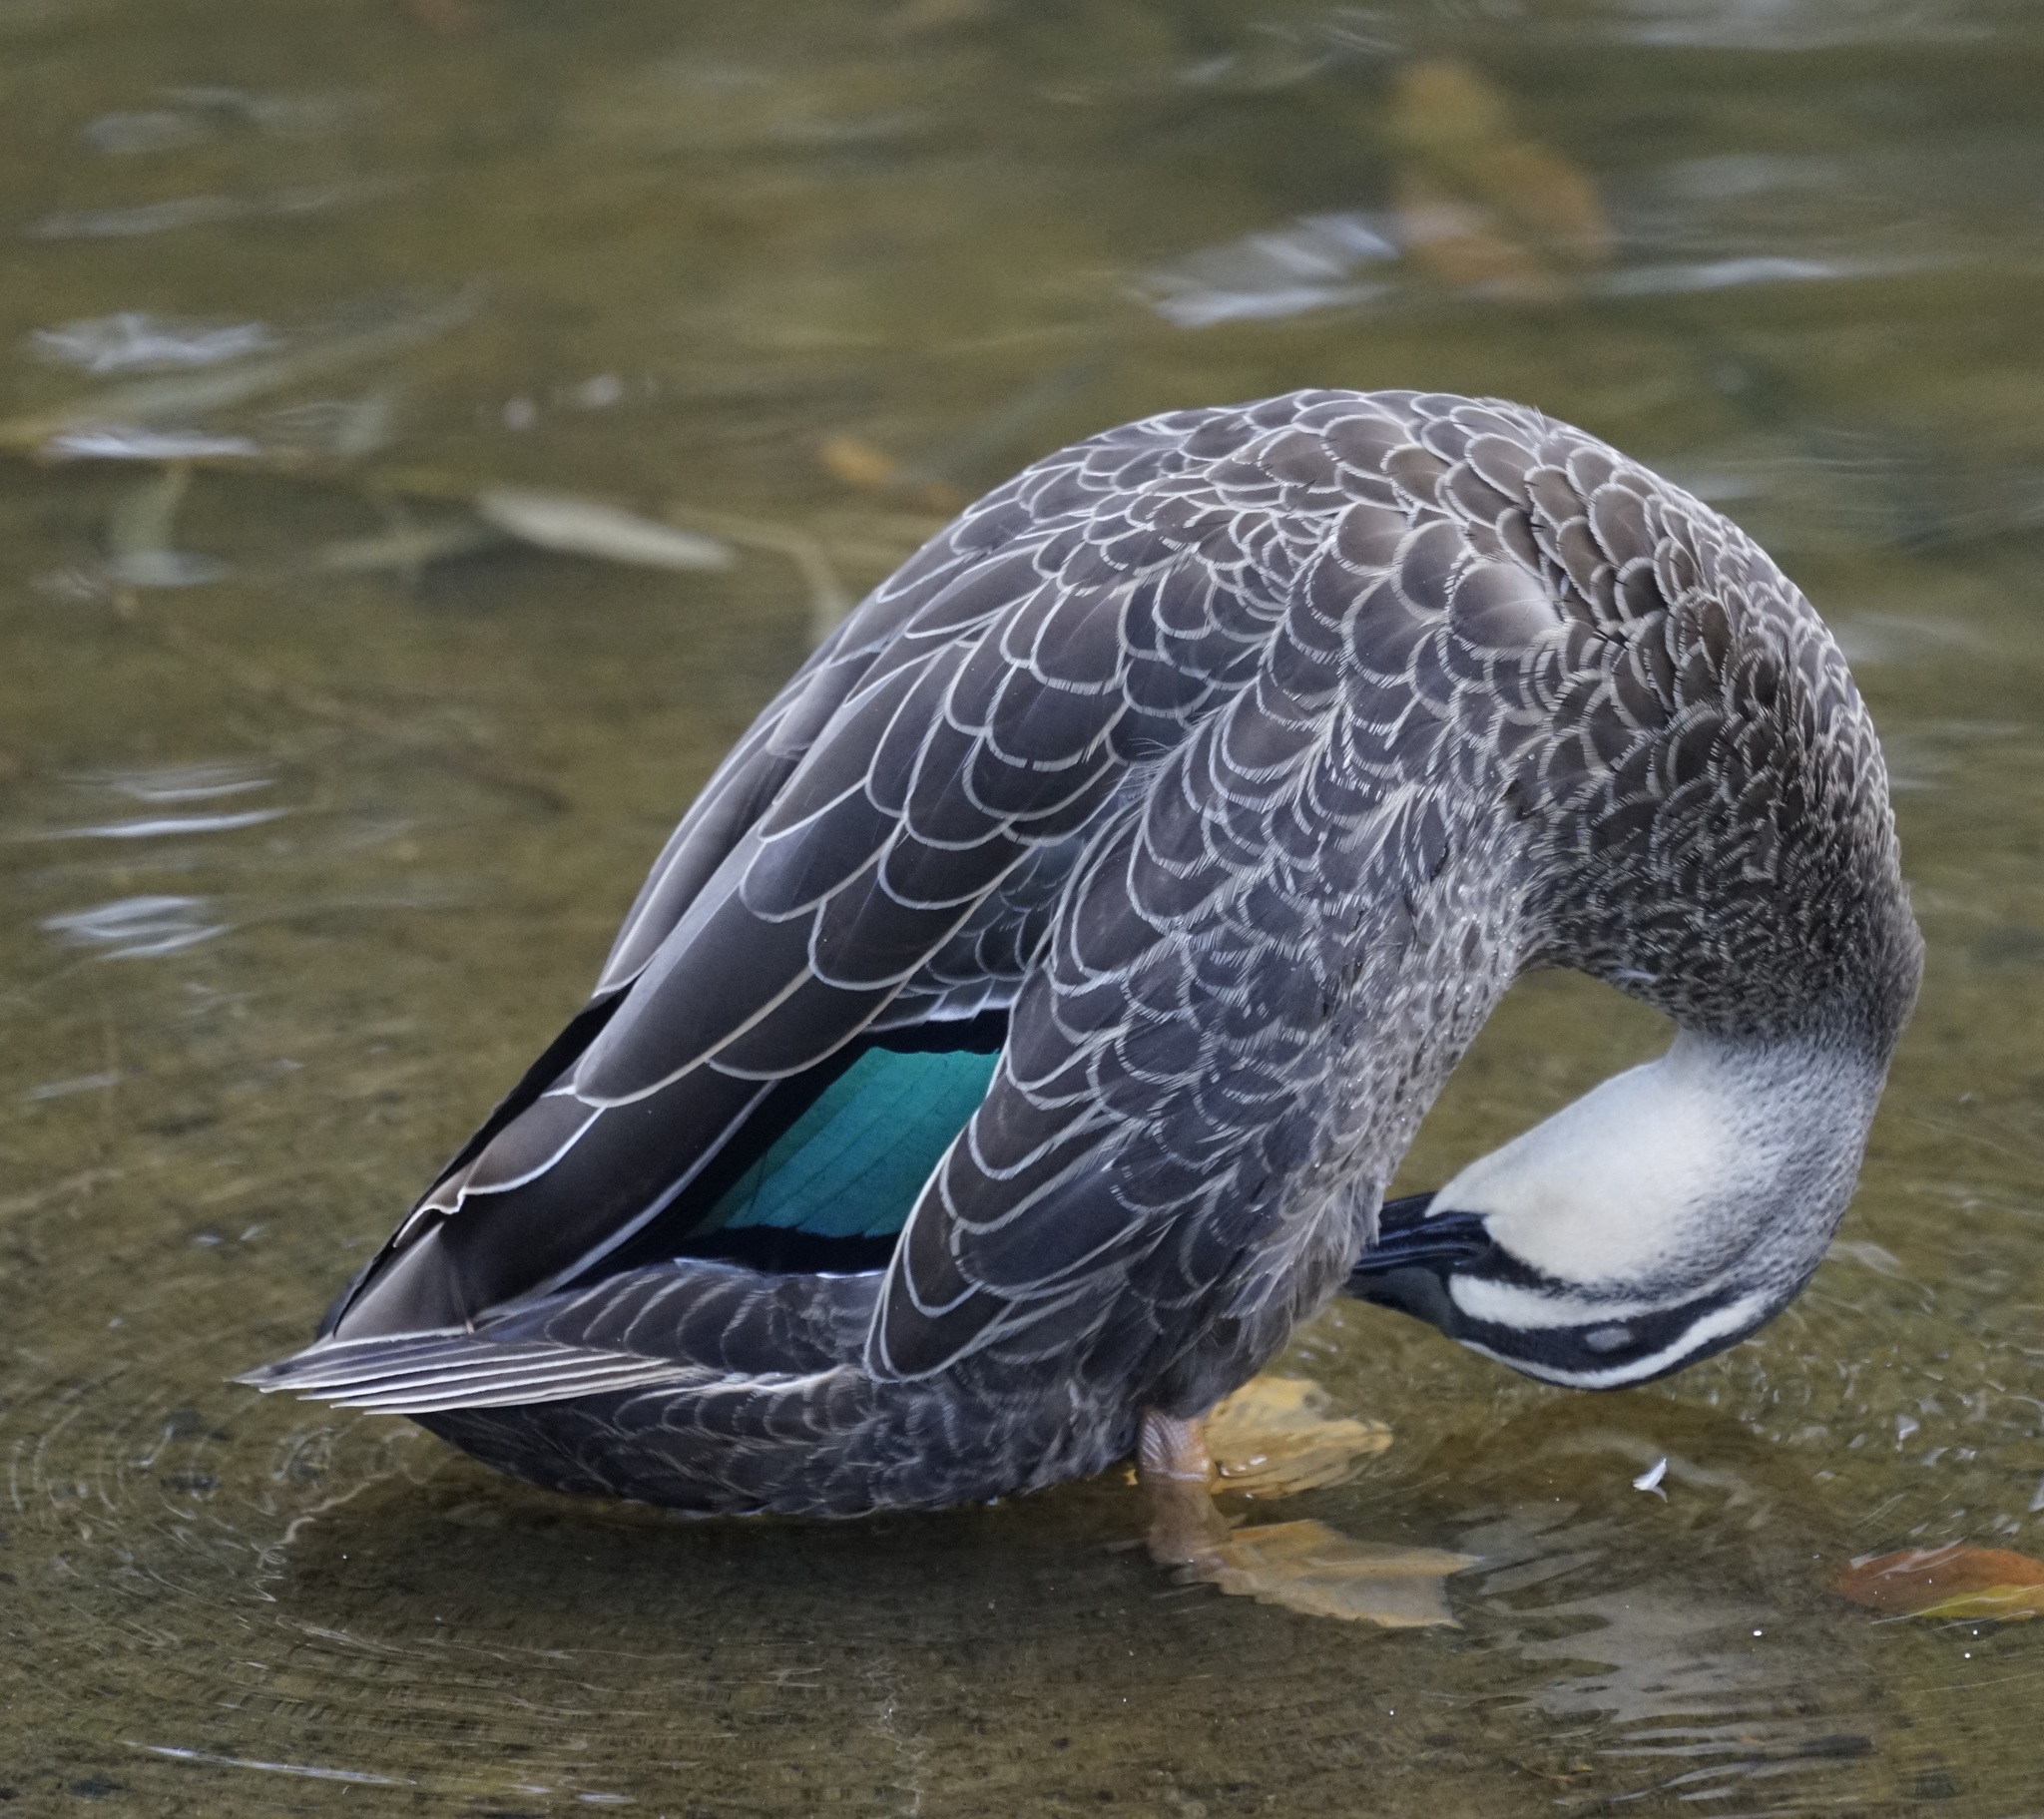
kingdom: Animalia
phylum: Chordata
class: Aves
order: Anseriformes
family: Anatidae
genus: Anas
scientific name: Anas
